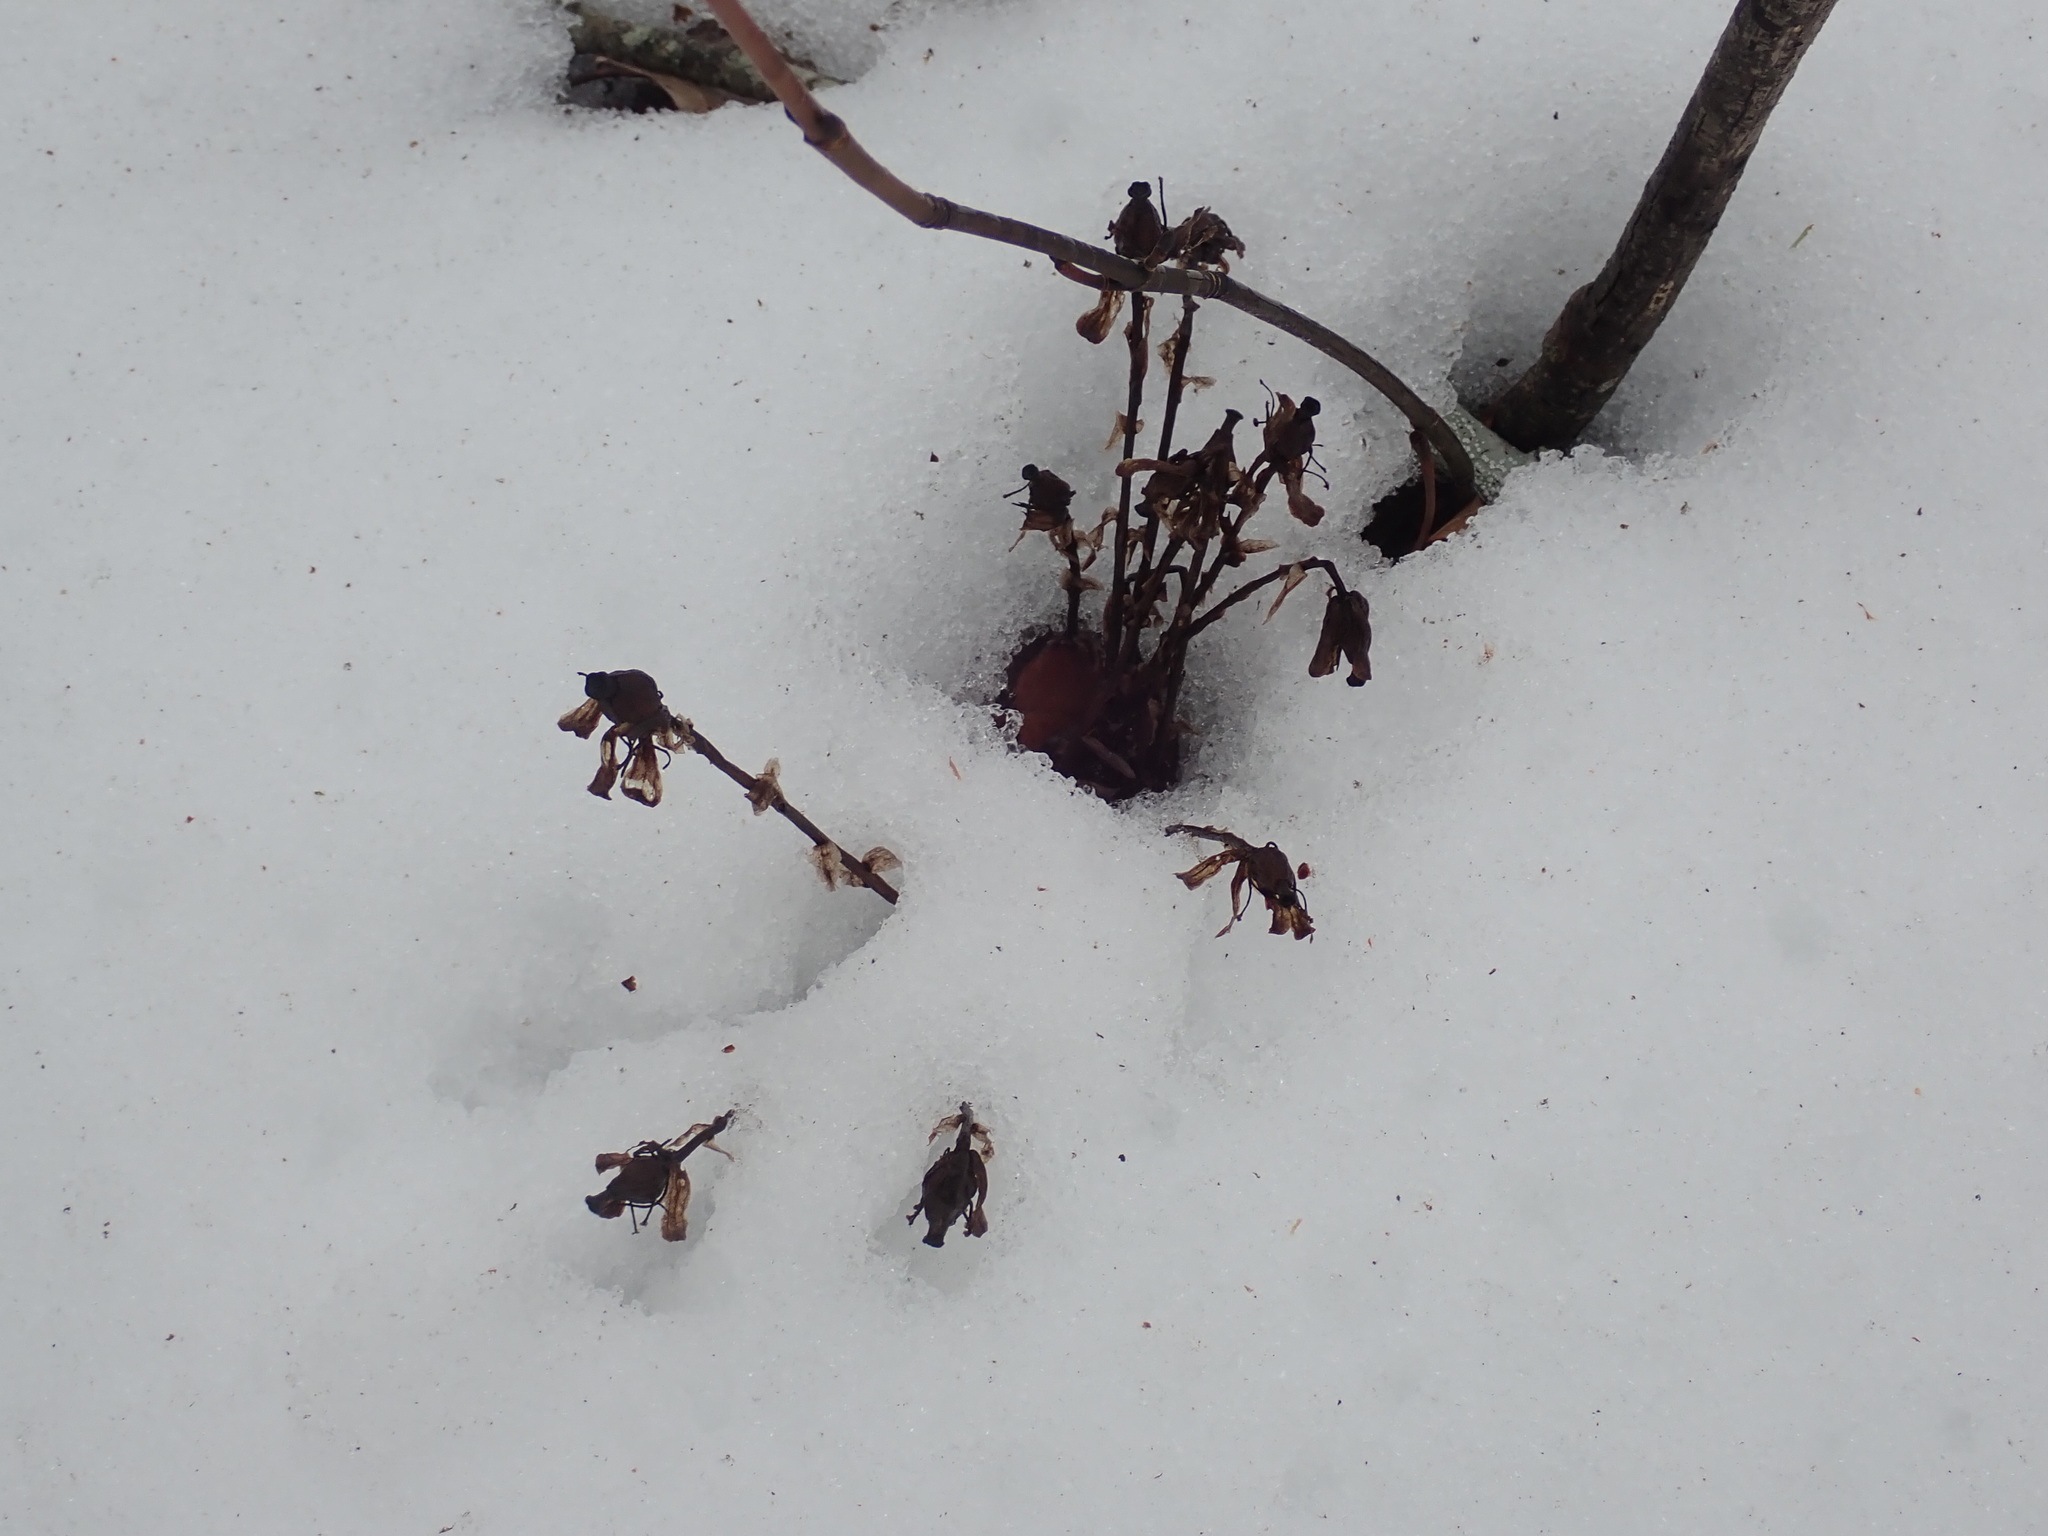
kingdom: Plantae
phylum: Tracheophyta
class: Magnoliopsida
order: Ericales
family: Ericaceae
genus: Monotropa
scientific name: Monotropa uniflora
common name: Convulsion root
